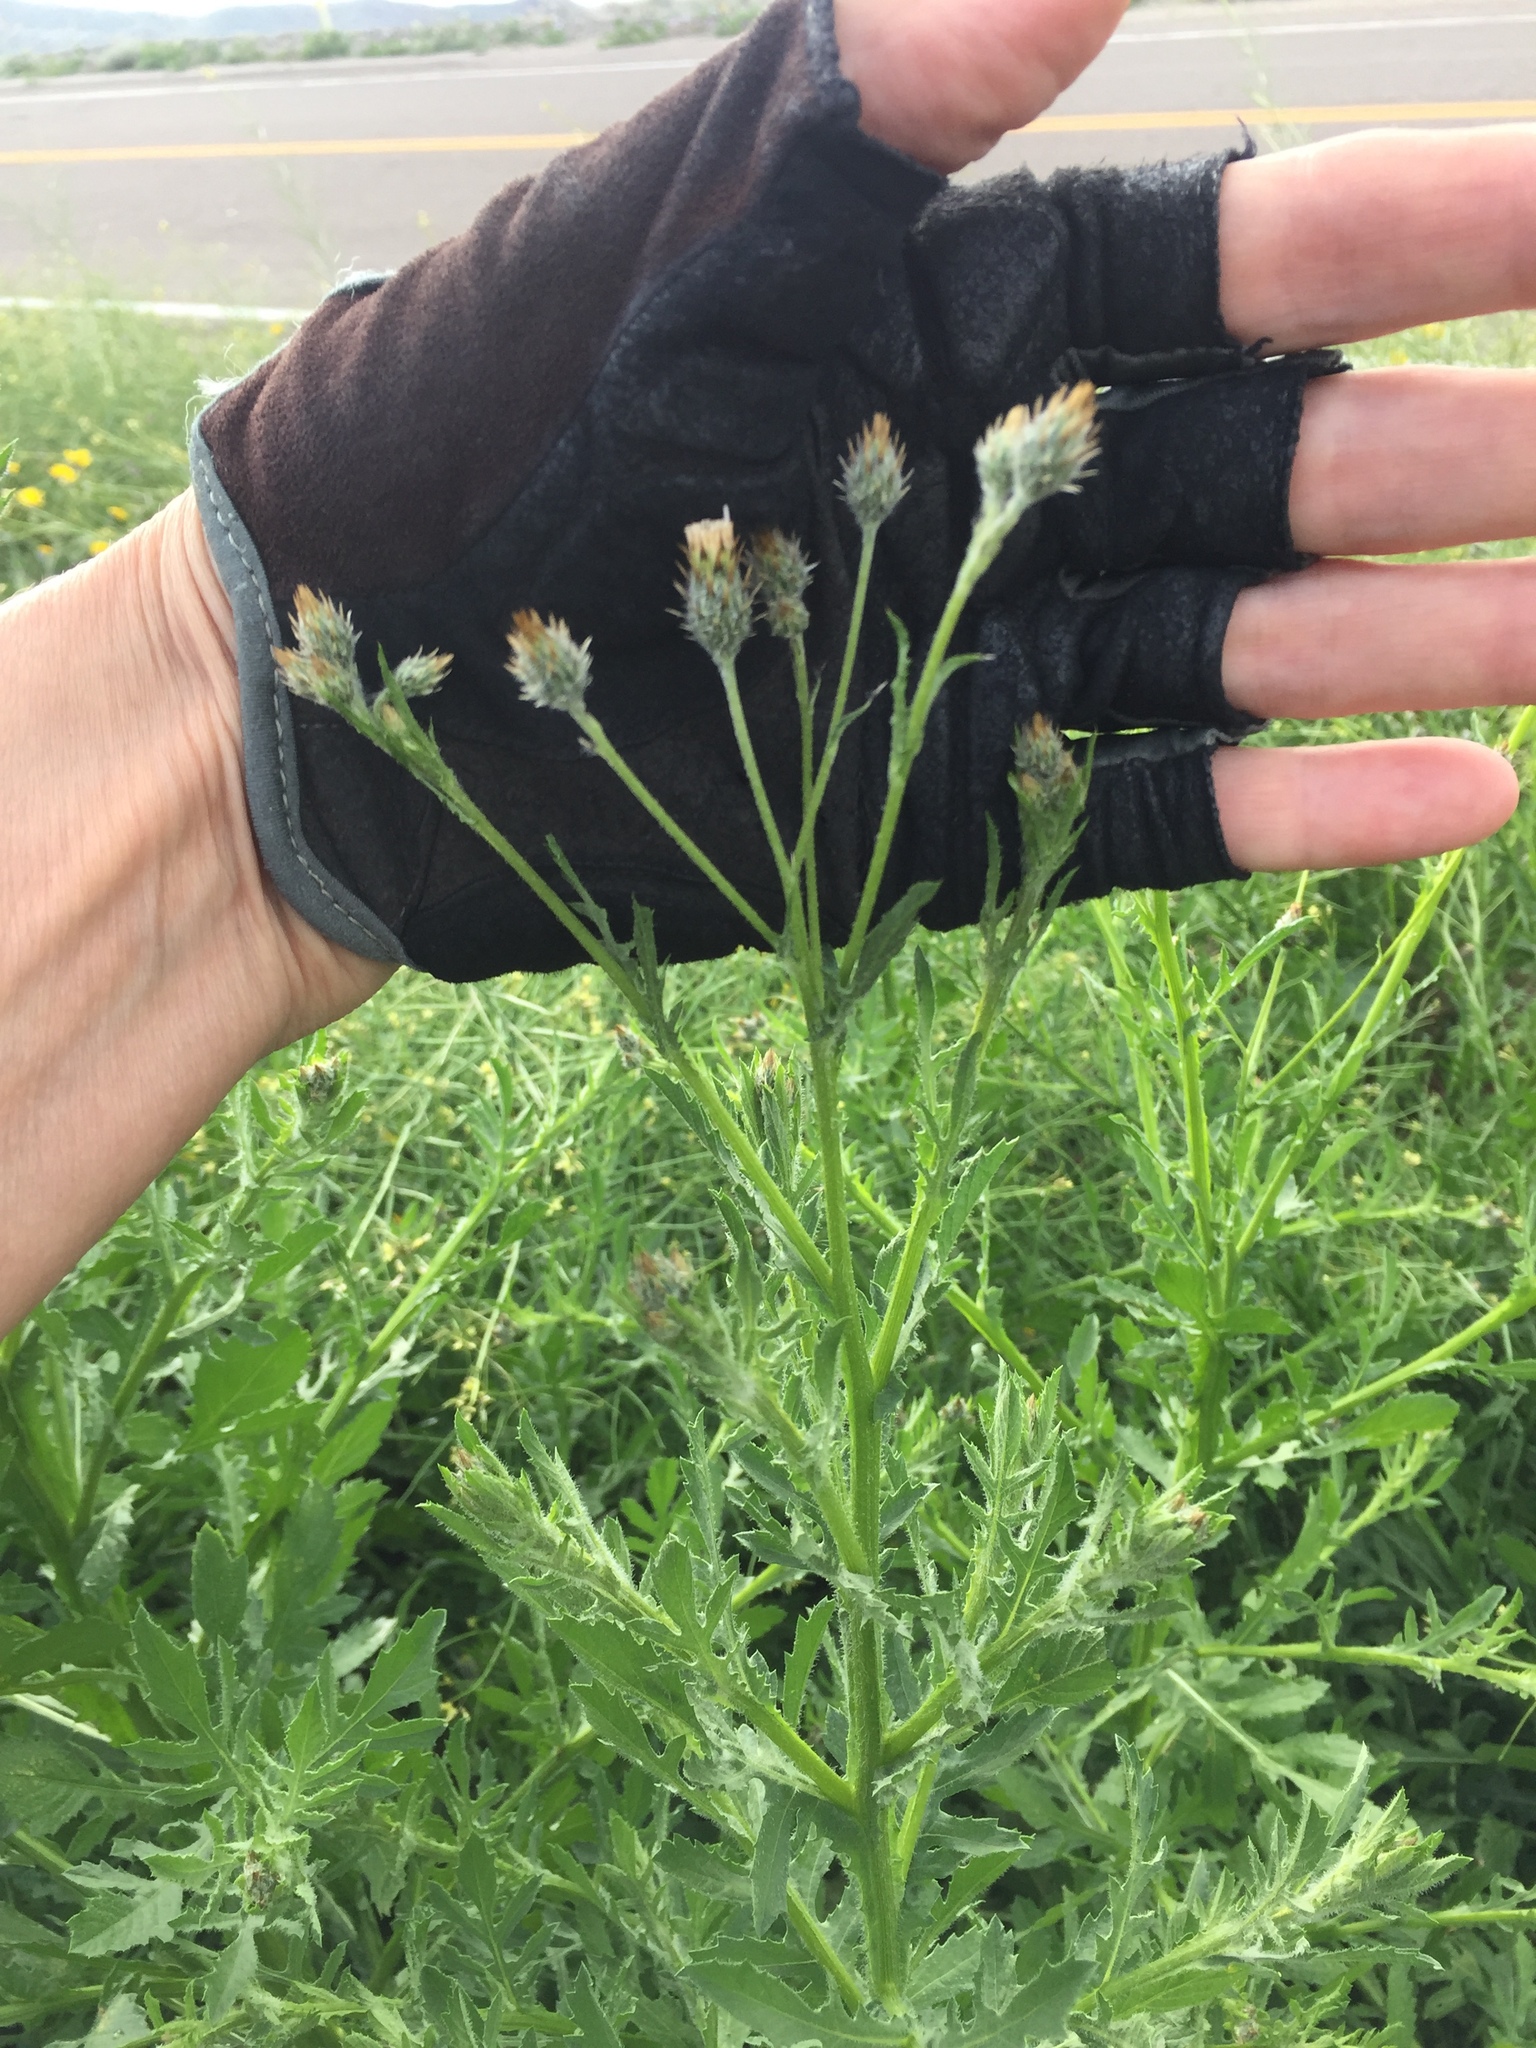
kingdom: Plantae
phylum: Tracheophyta
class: Magnoliopsida
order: Asterales
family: Asteraceae
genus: Volutaria
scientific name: Volutaria tubuliflora
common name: Desert knapweed
